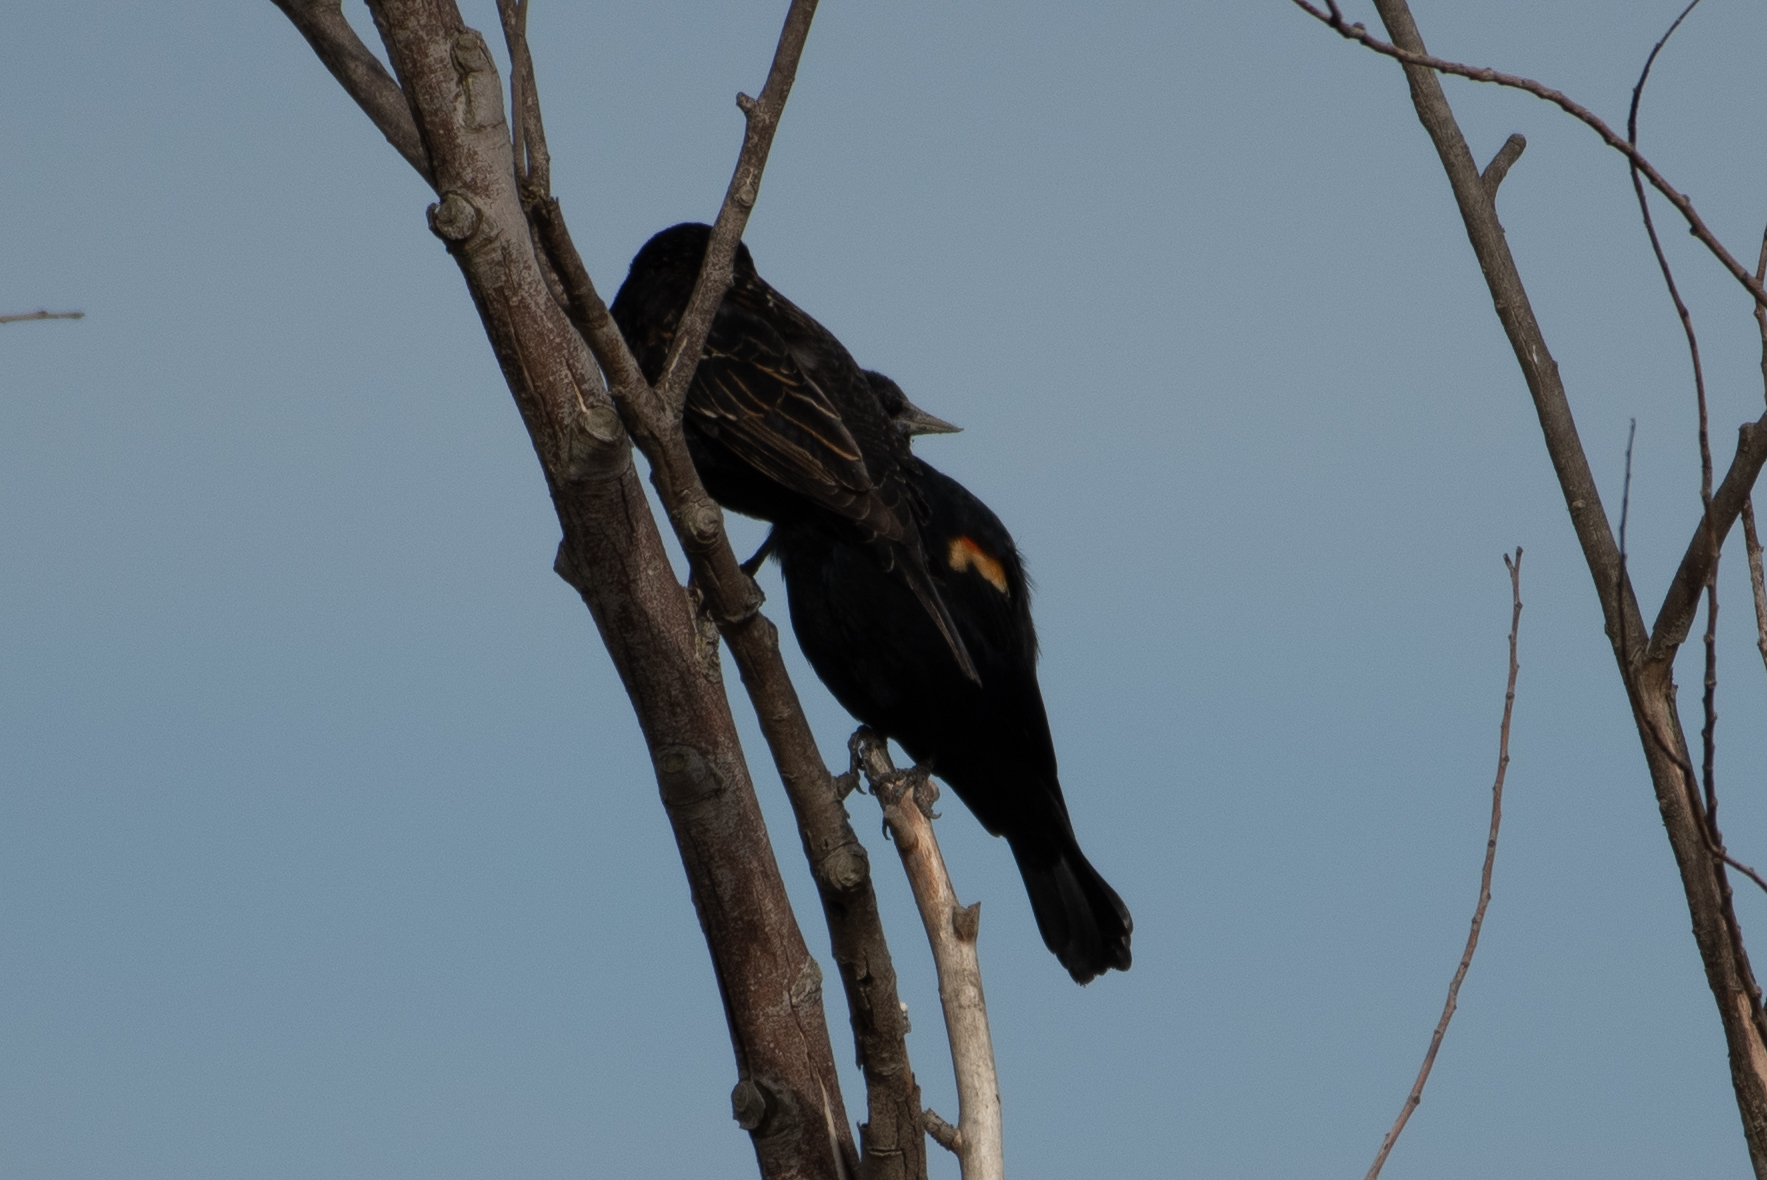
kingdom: Animalia
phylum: Chordata
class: Aves
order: Passeriformes
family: Icteridae
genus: Agelaius
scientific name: Agelaius phoeniceus
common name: Red-winged blackbird
